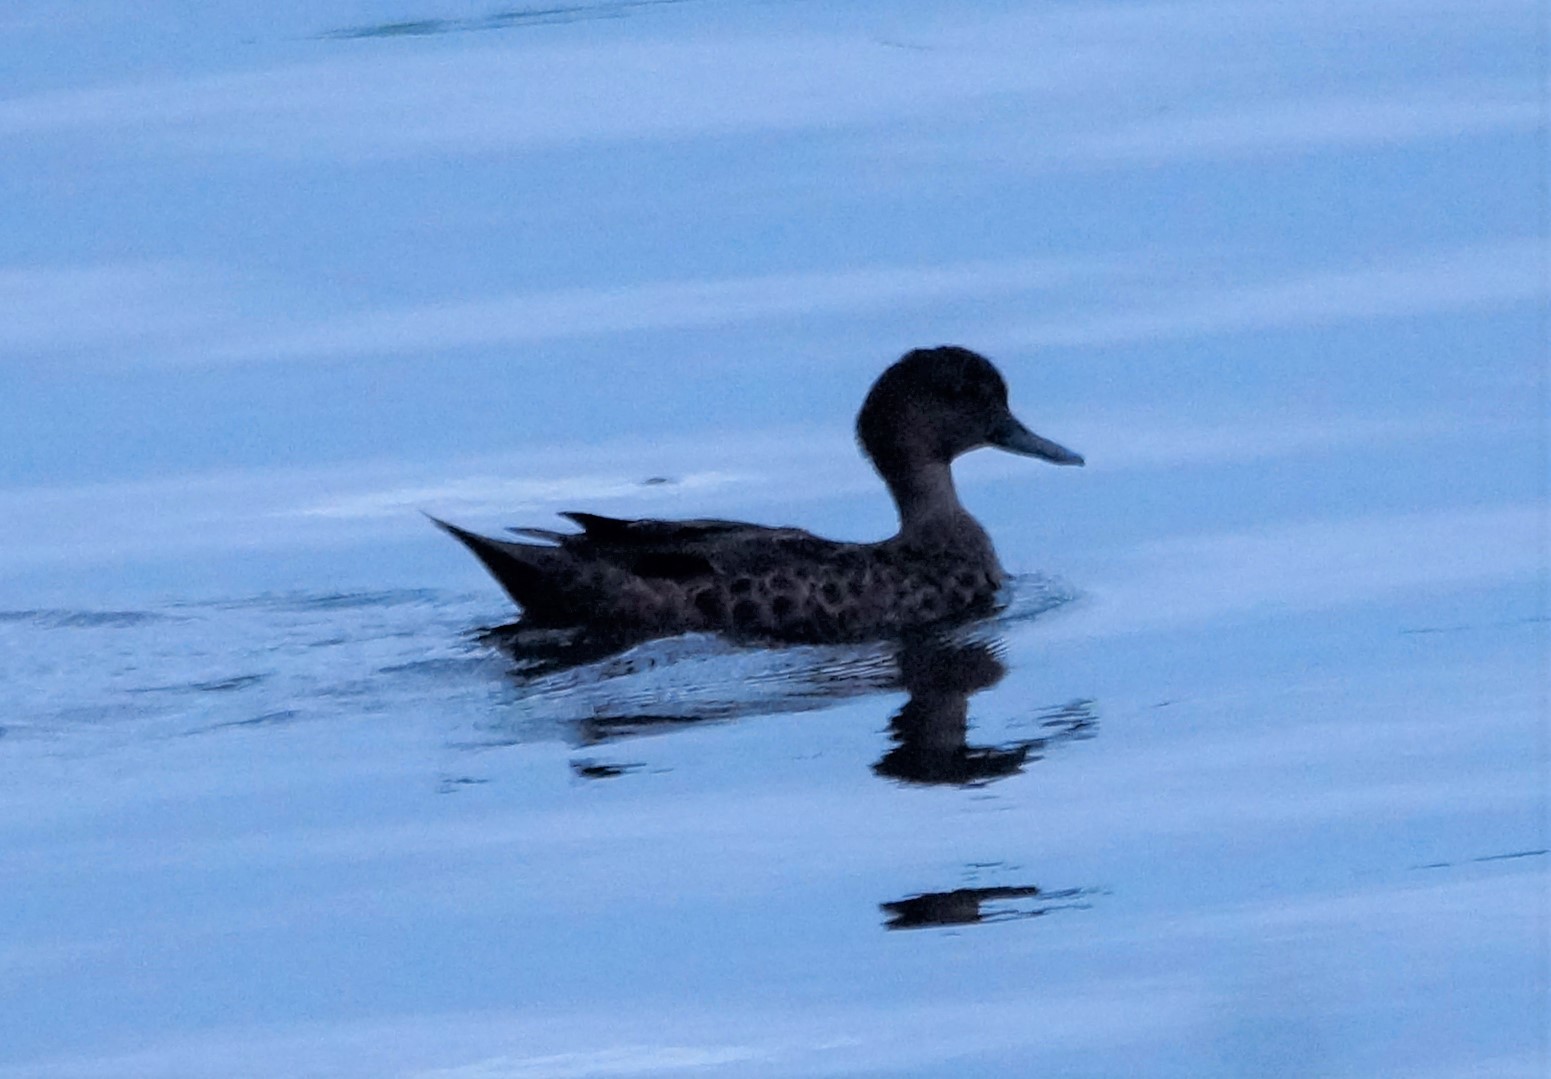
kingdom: Animalia
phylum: Chordata
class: Aves
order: Anseriformes
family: Anatidae
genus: Anas
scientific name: Anas castanea
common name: Chestnut teal
